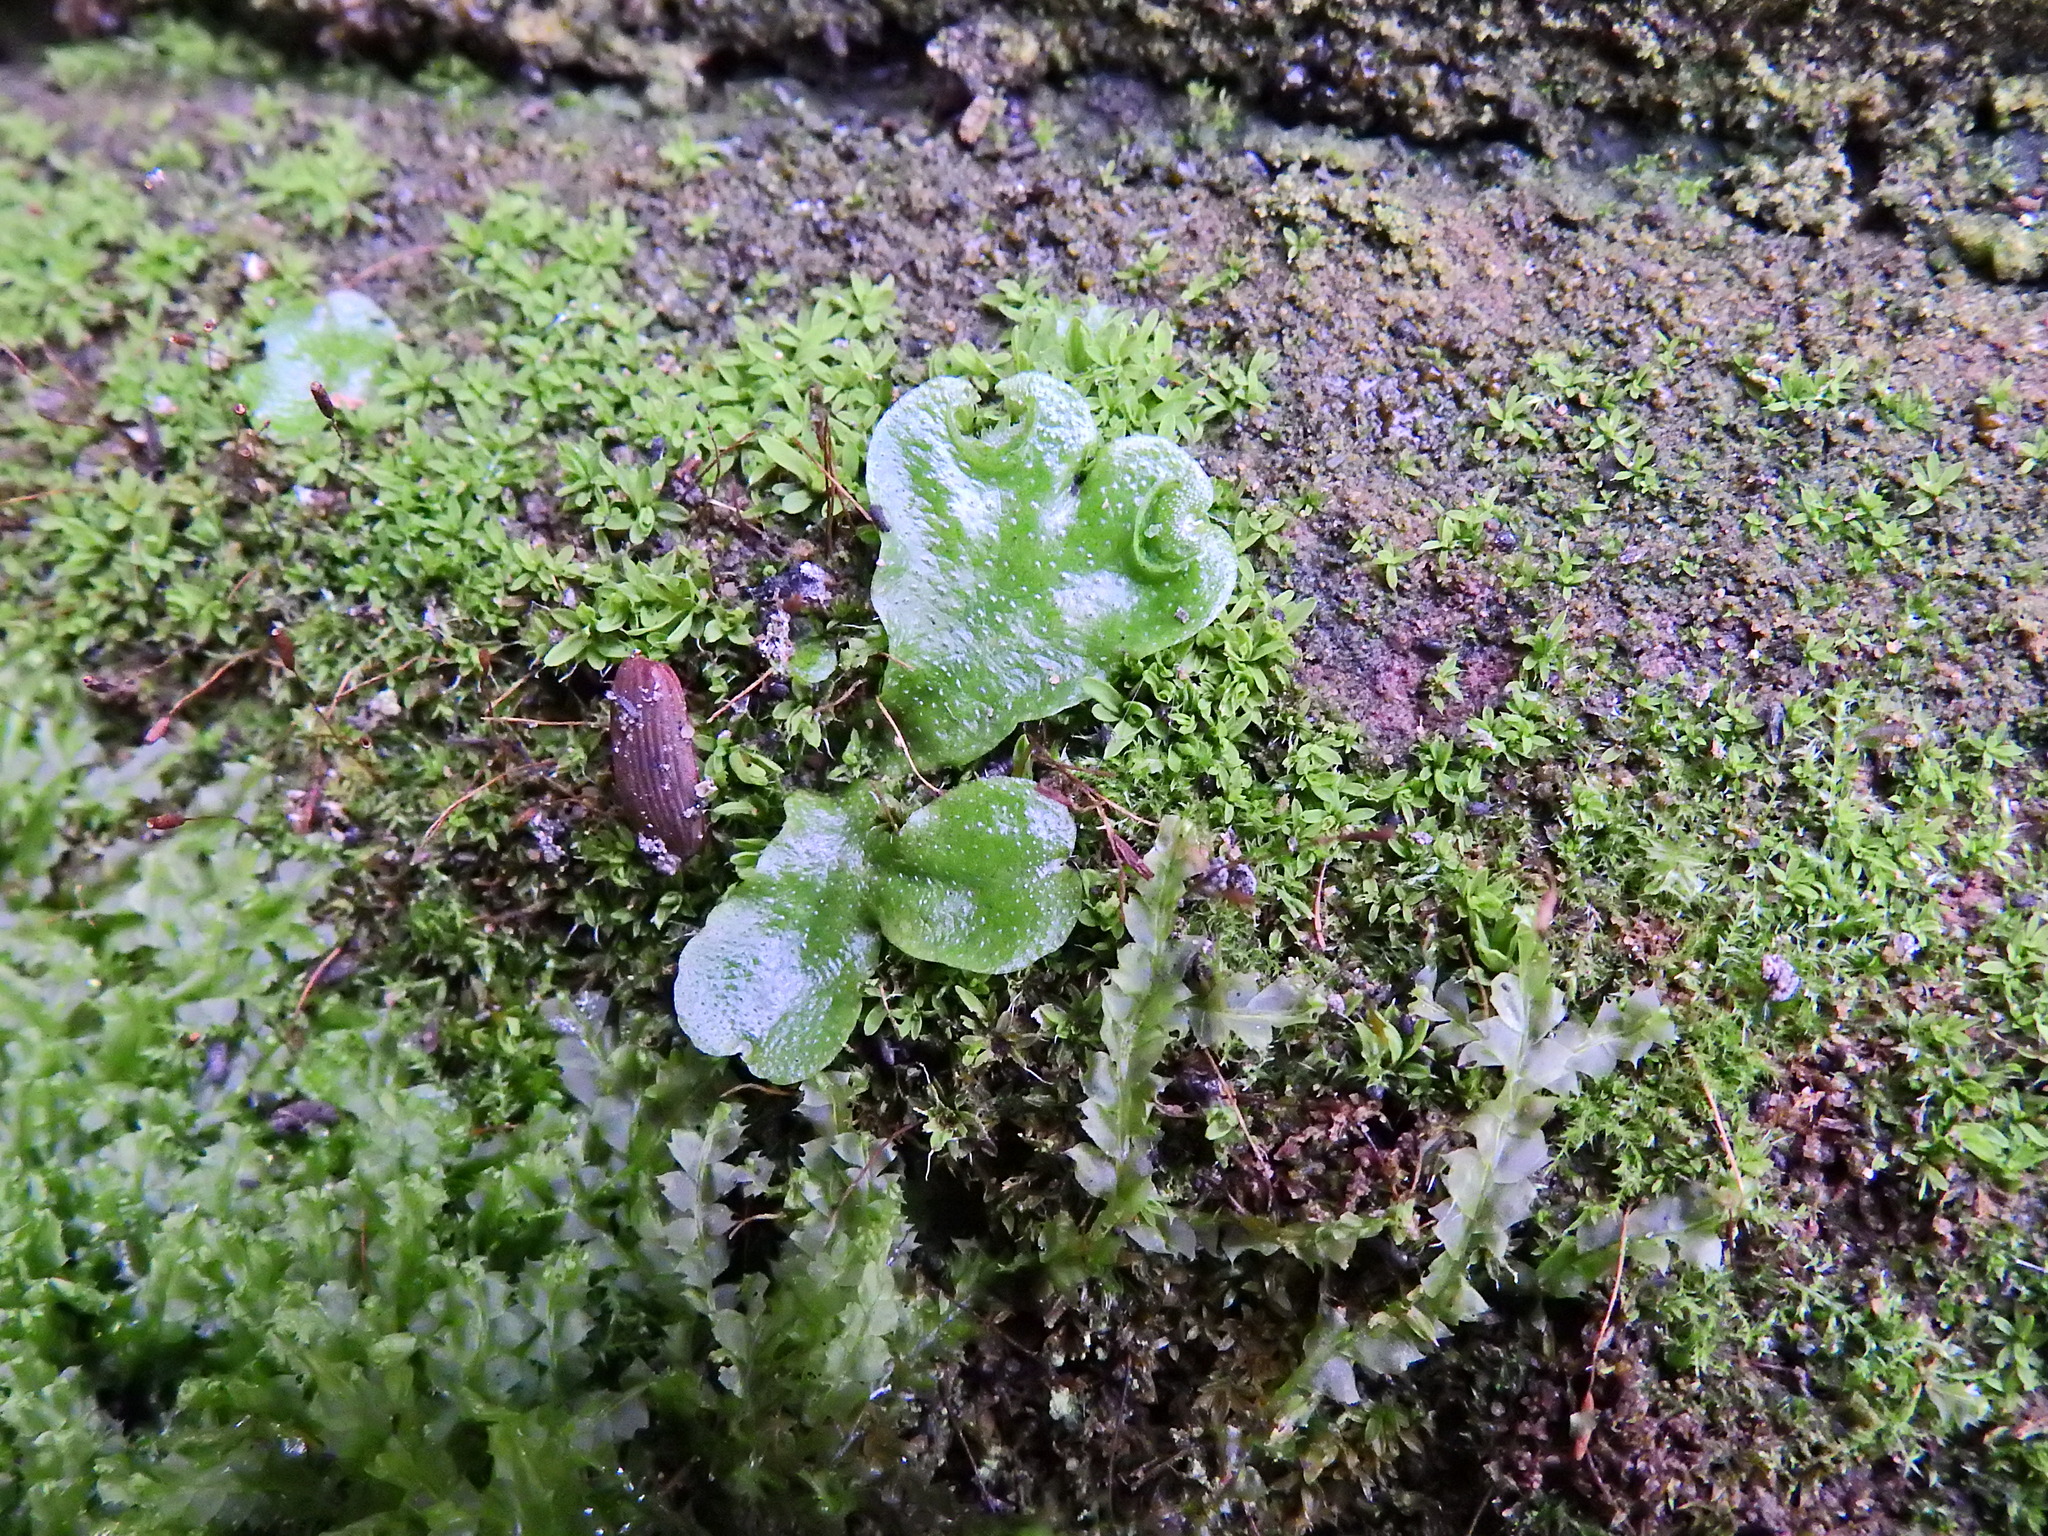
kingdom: Plantae
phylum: Marchantiophyta
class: Marchantiopsida
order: Lunulariales
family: Lunulariaceae
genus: Lunularia
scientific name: Lunularia cruciata
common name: Crescent-cup liverwort
